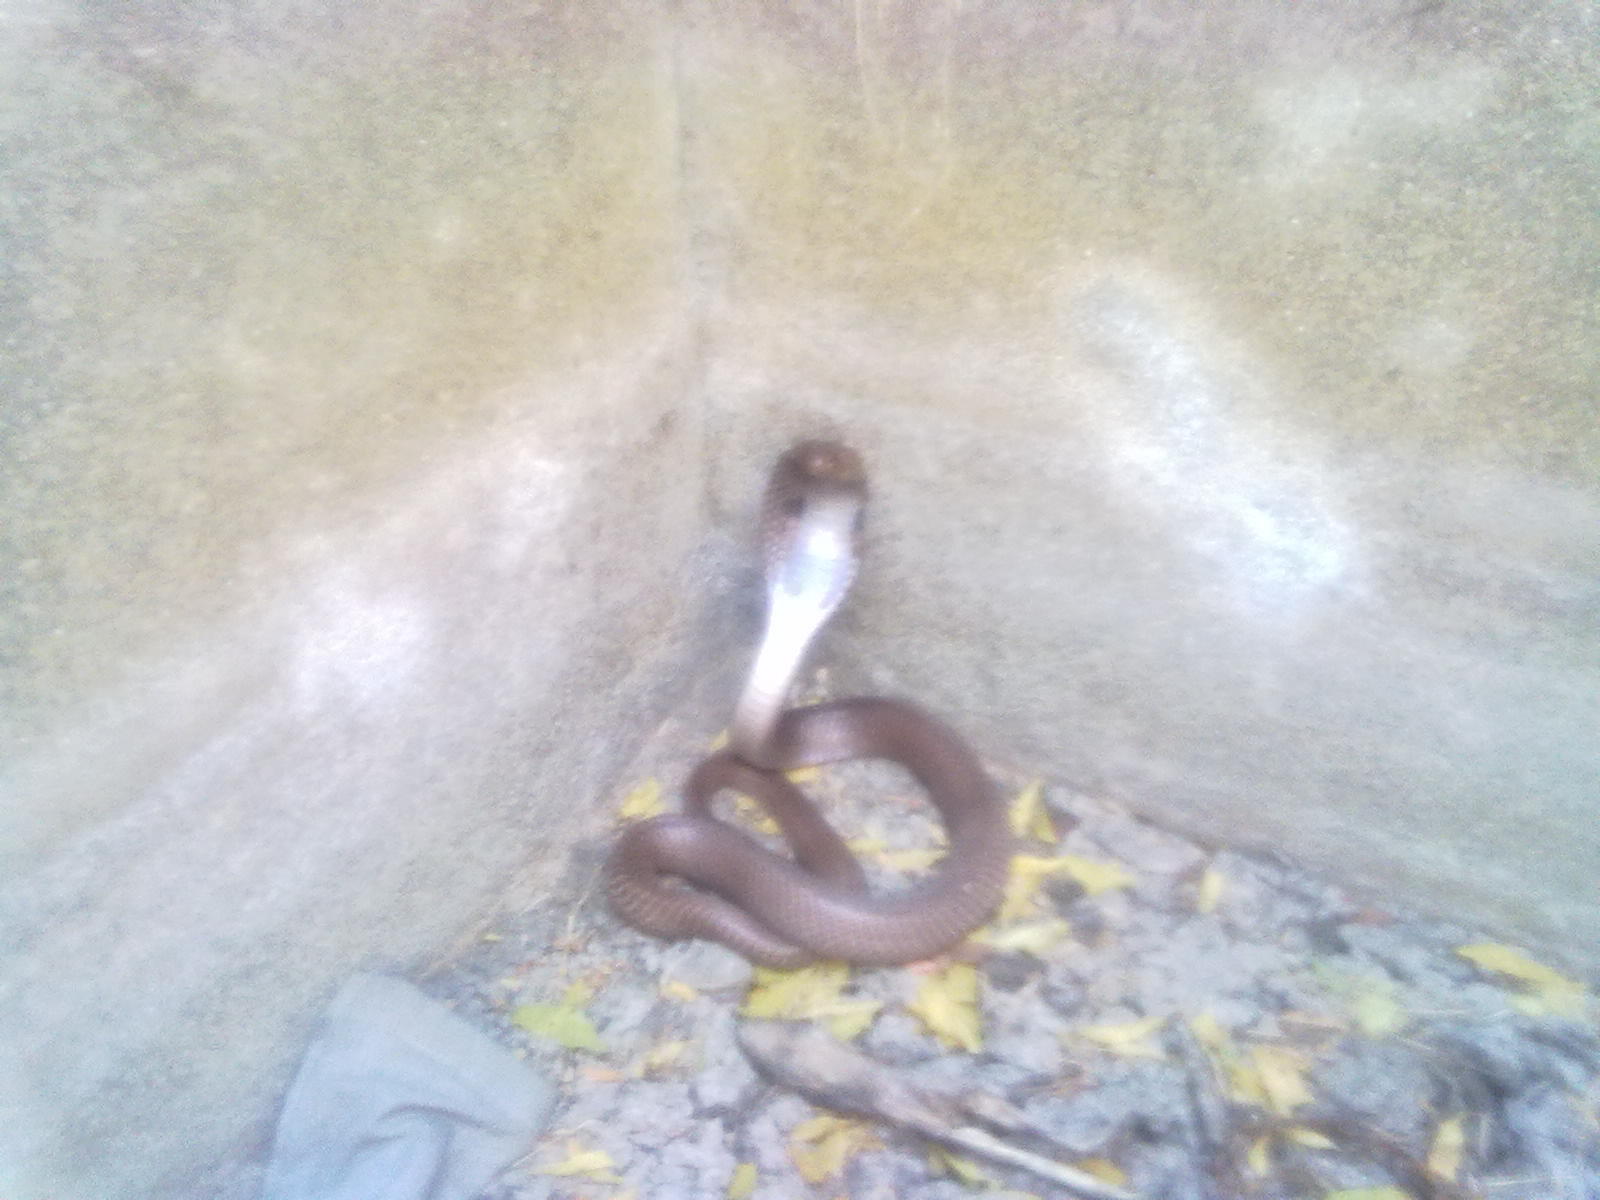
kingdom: Animalia
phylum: Chordata
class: Squamata
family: Elapidae
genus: Naja
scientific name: Naja naja
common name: Indian cobra
